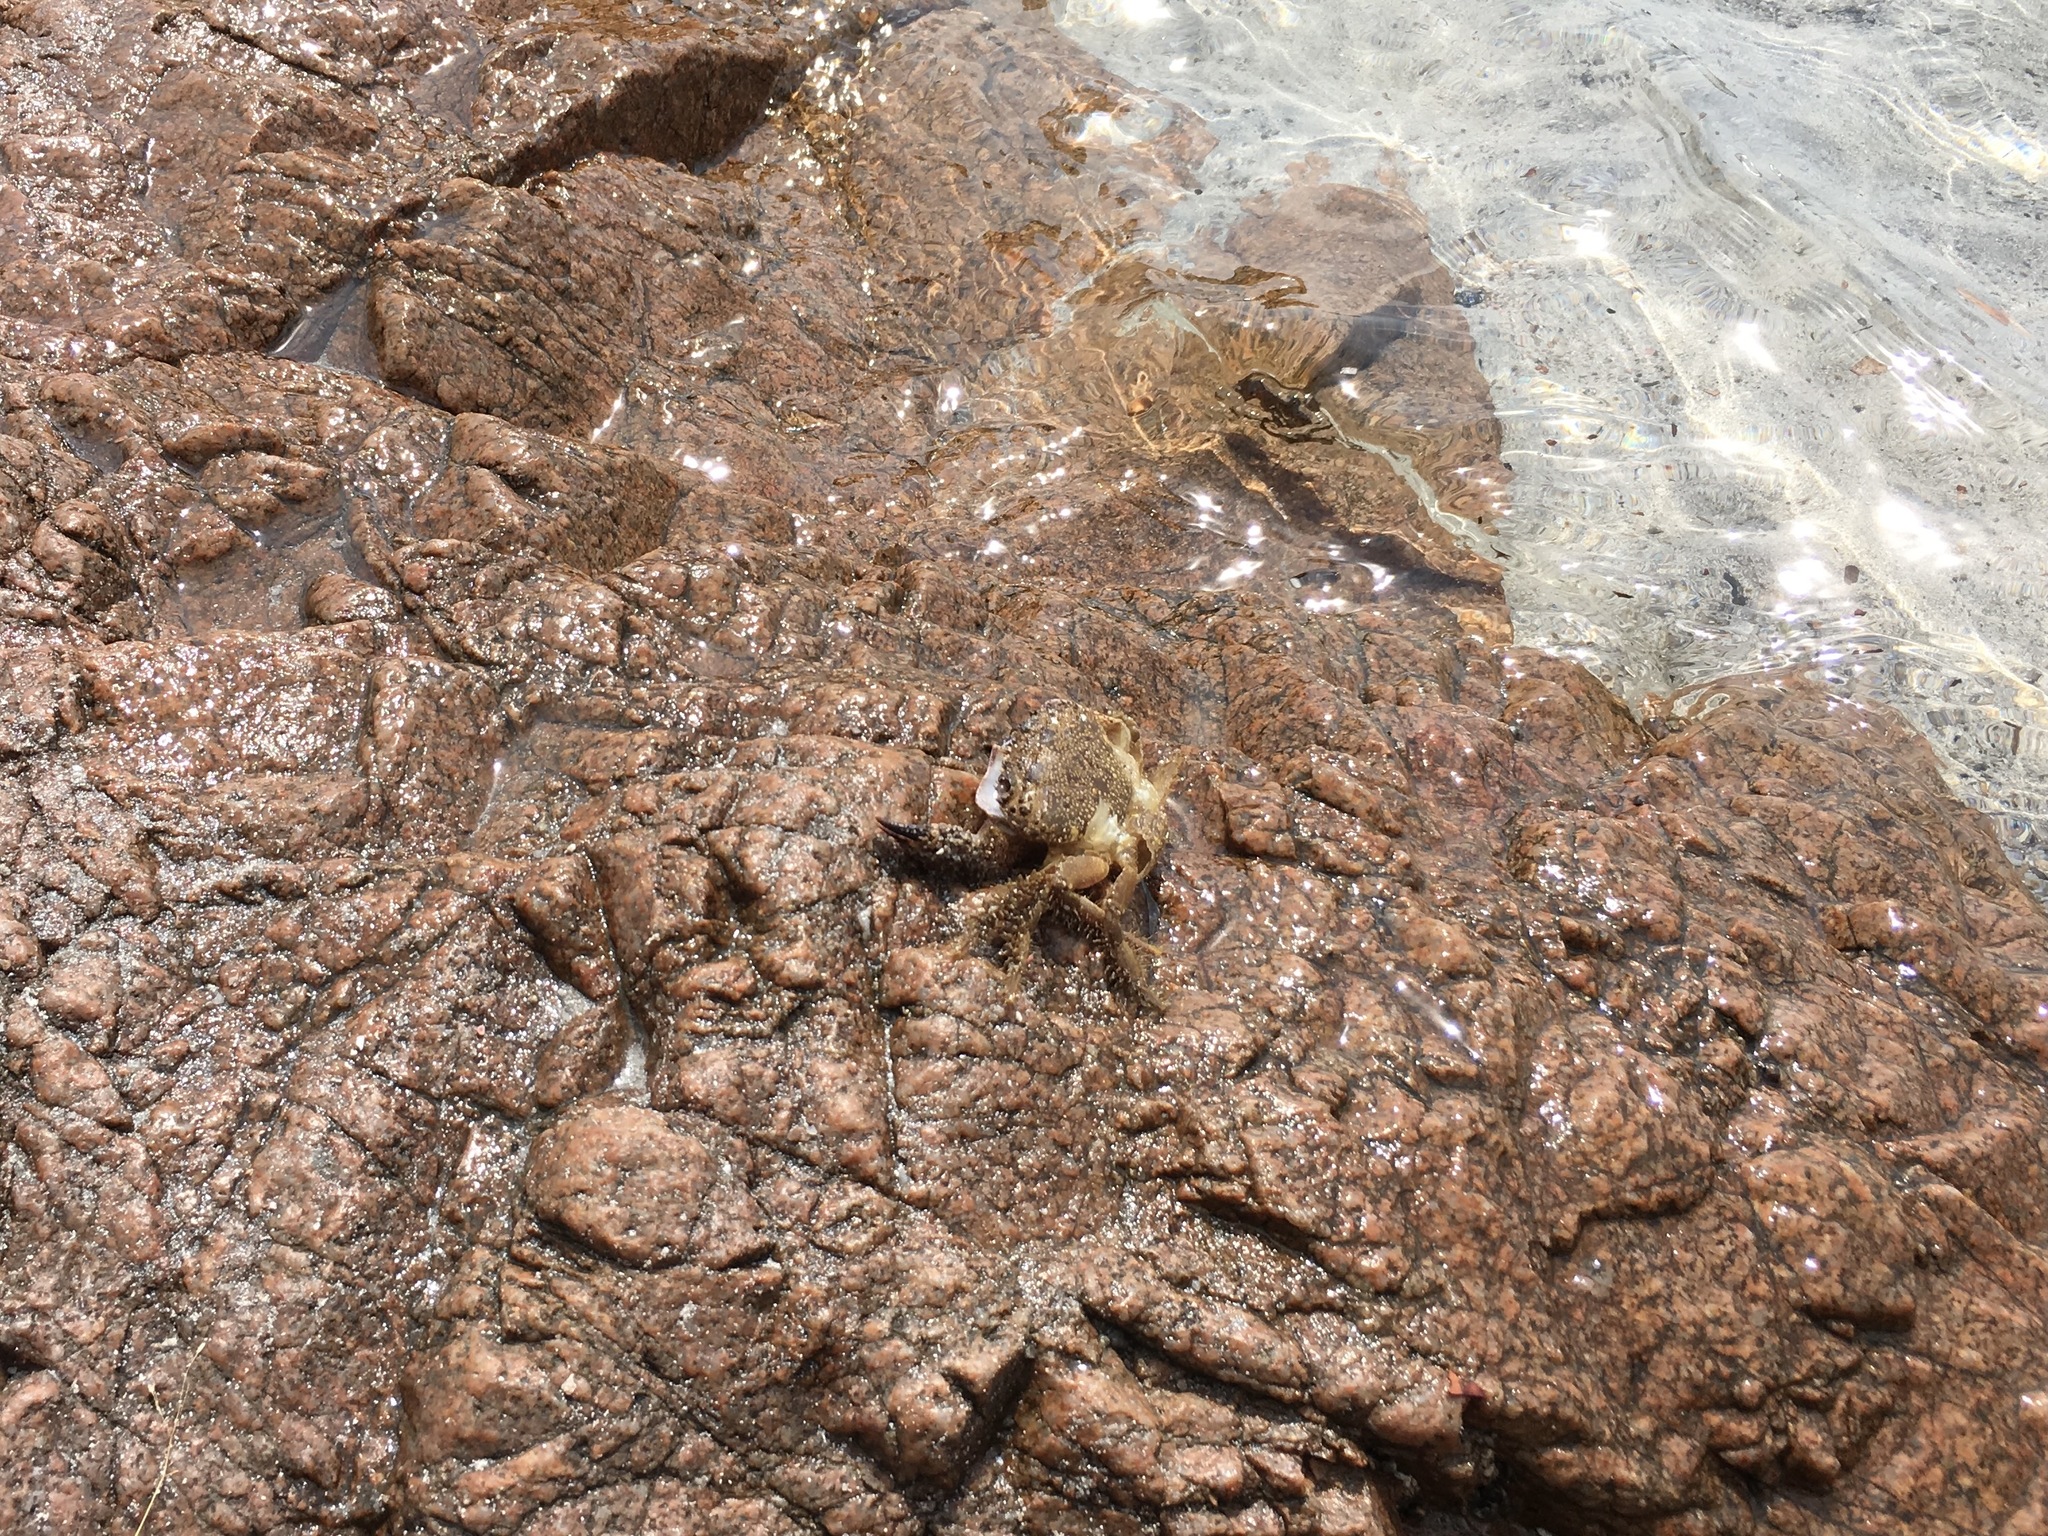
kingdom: Animalia
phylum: Arthropoda
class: Malacostraca
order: Decapoda
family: Eriphiidae
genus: Eriphia
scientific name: Eriphia verrucosa
